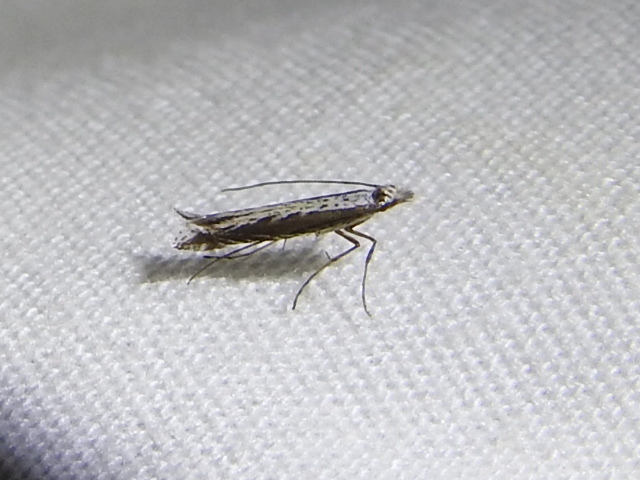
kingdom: Plantae
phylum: Rhodophyta
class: Florideophyceae
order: Gracilariales
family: Gracilariaceae
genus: Gracilaria
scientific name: Gracilaria
